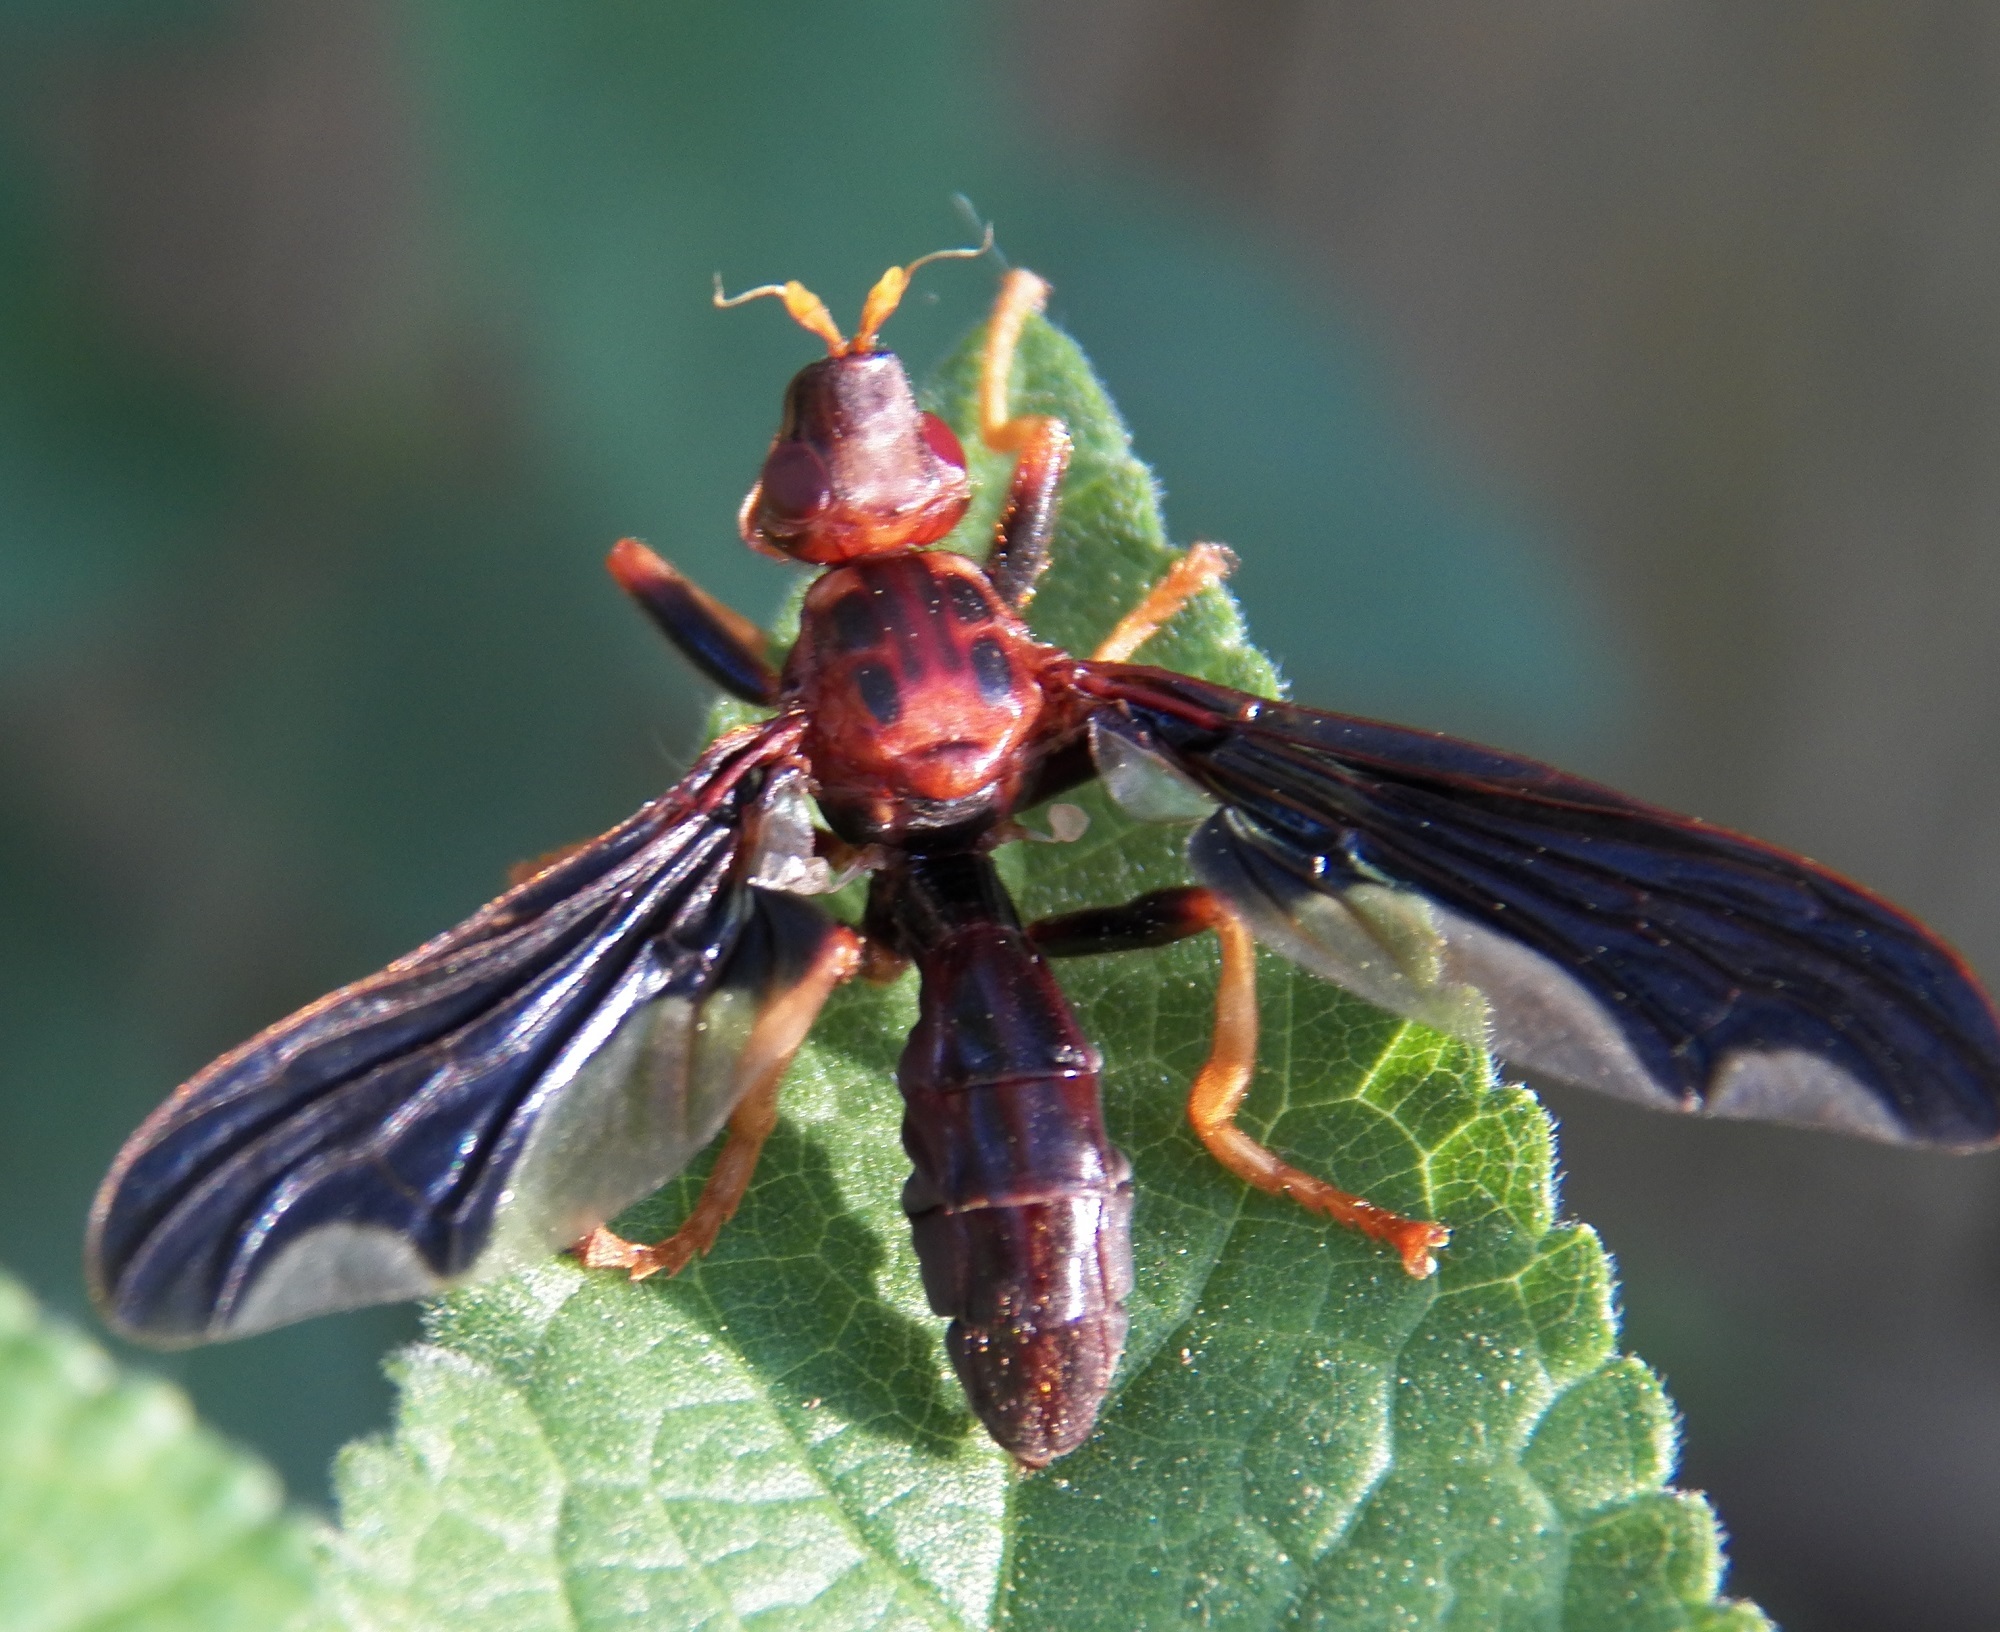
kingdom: Animalia
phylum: Arthropoda
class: Insecta
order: Diptera
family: Pyrgotidae
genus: Pyrgota
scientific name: Pyrgota undata
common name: Waved light fly
